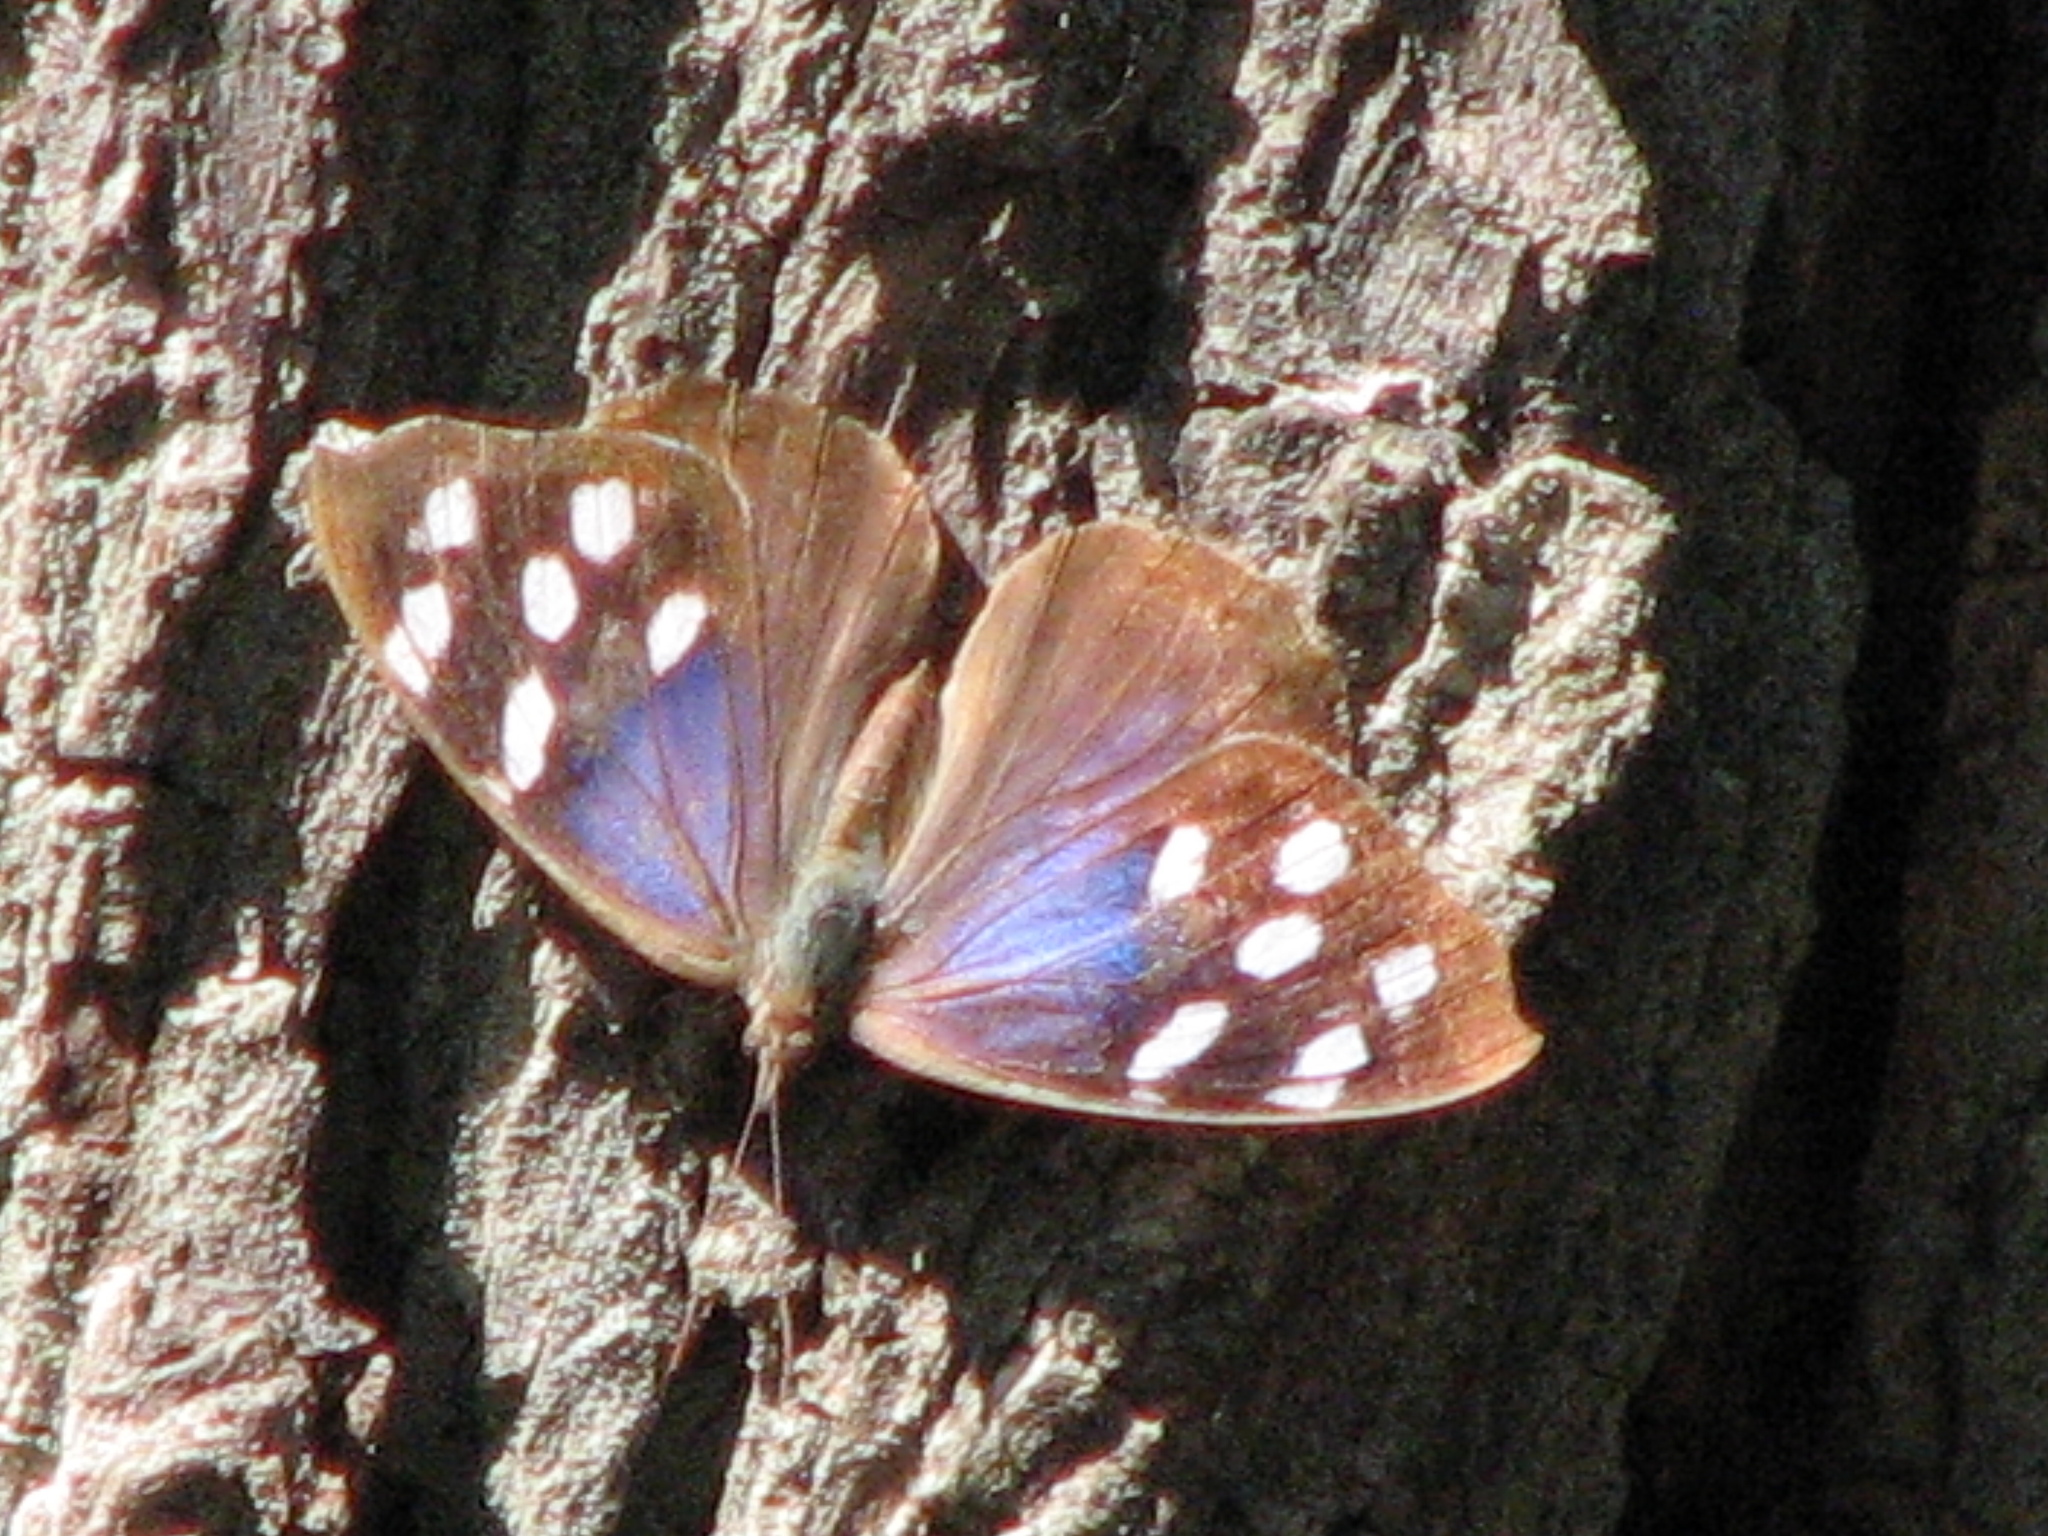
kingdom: Animalia
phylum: Arthropoda
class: Insecta
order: Lepidoptera
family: Nymphalidae
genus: Eunica
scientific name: Eunica tatila
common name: Florida purplewing
